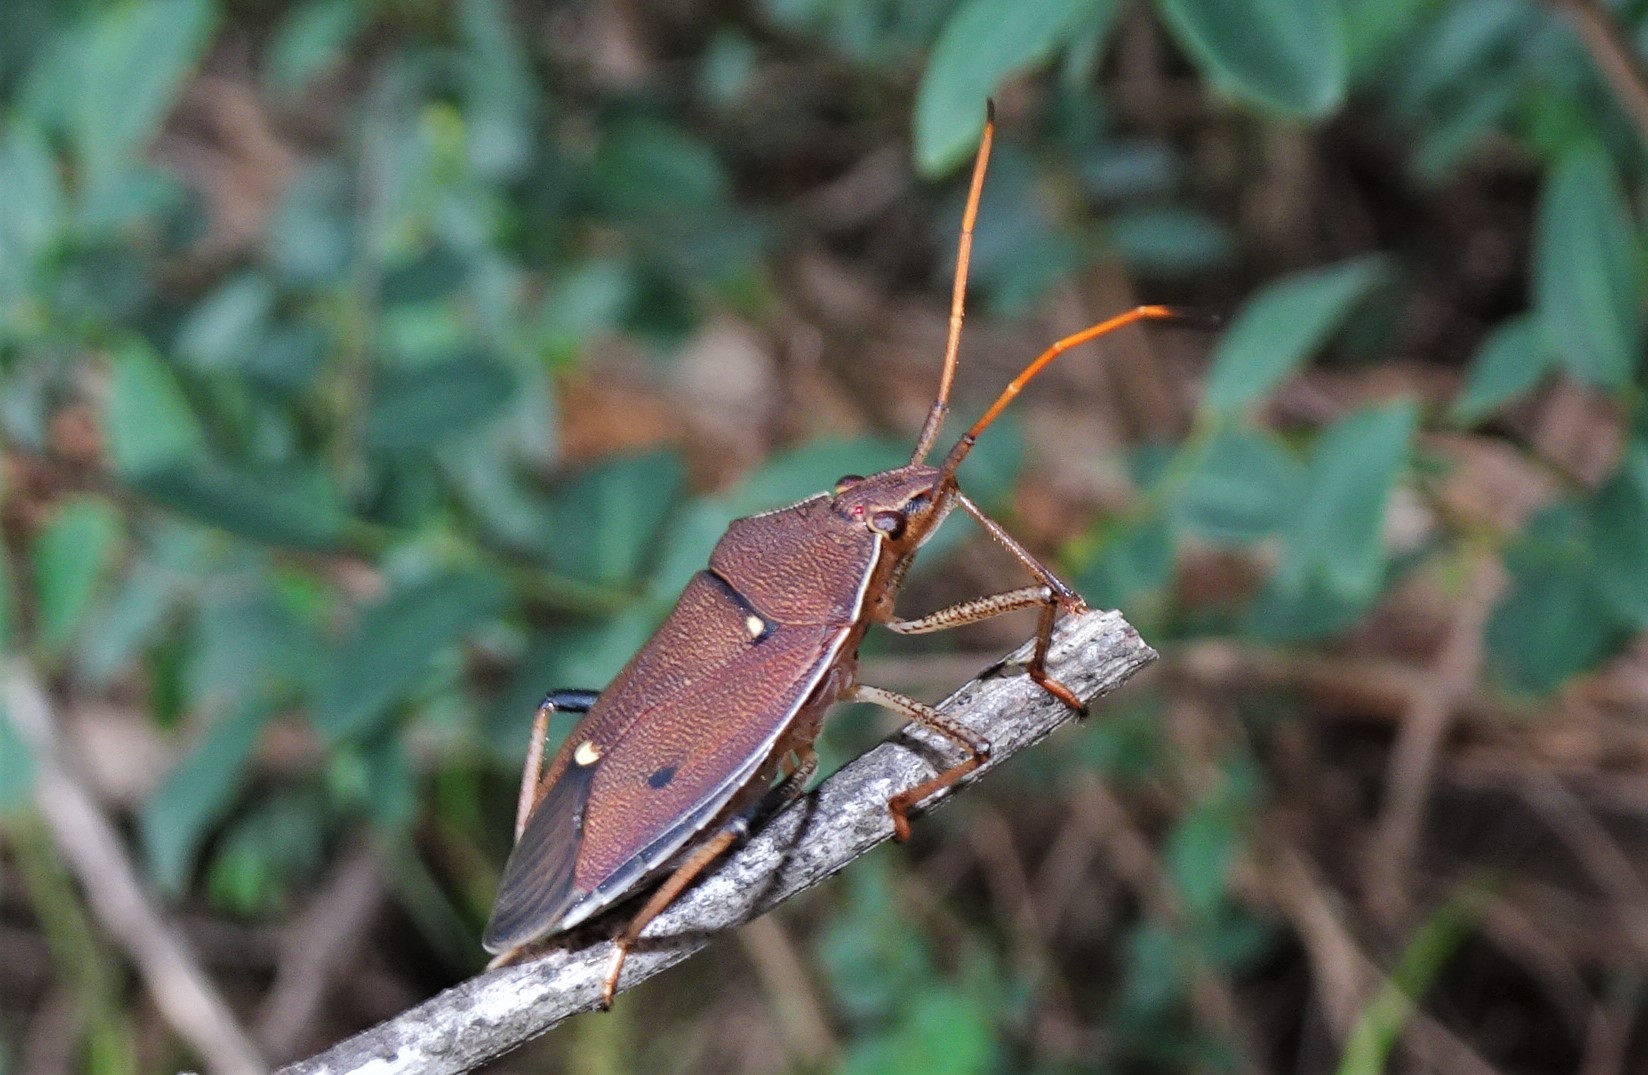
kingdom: Animalia
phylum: Arthropoda
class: Insecta
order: Hemiptera
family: Pentatomidae
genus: Poecilometis
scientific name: Poecilometis
